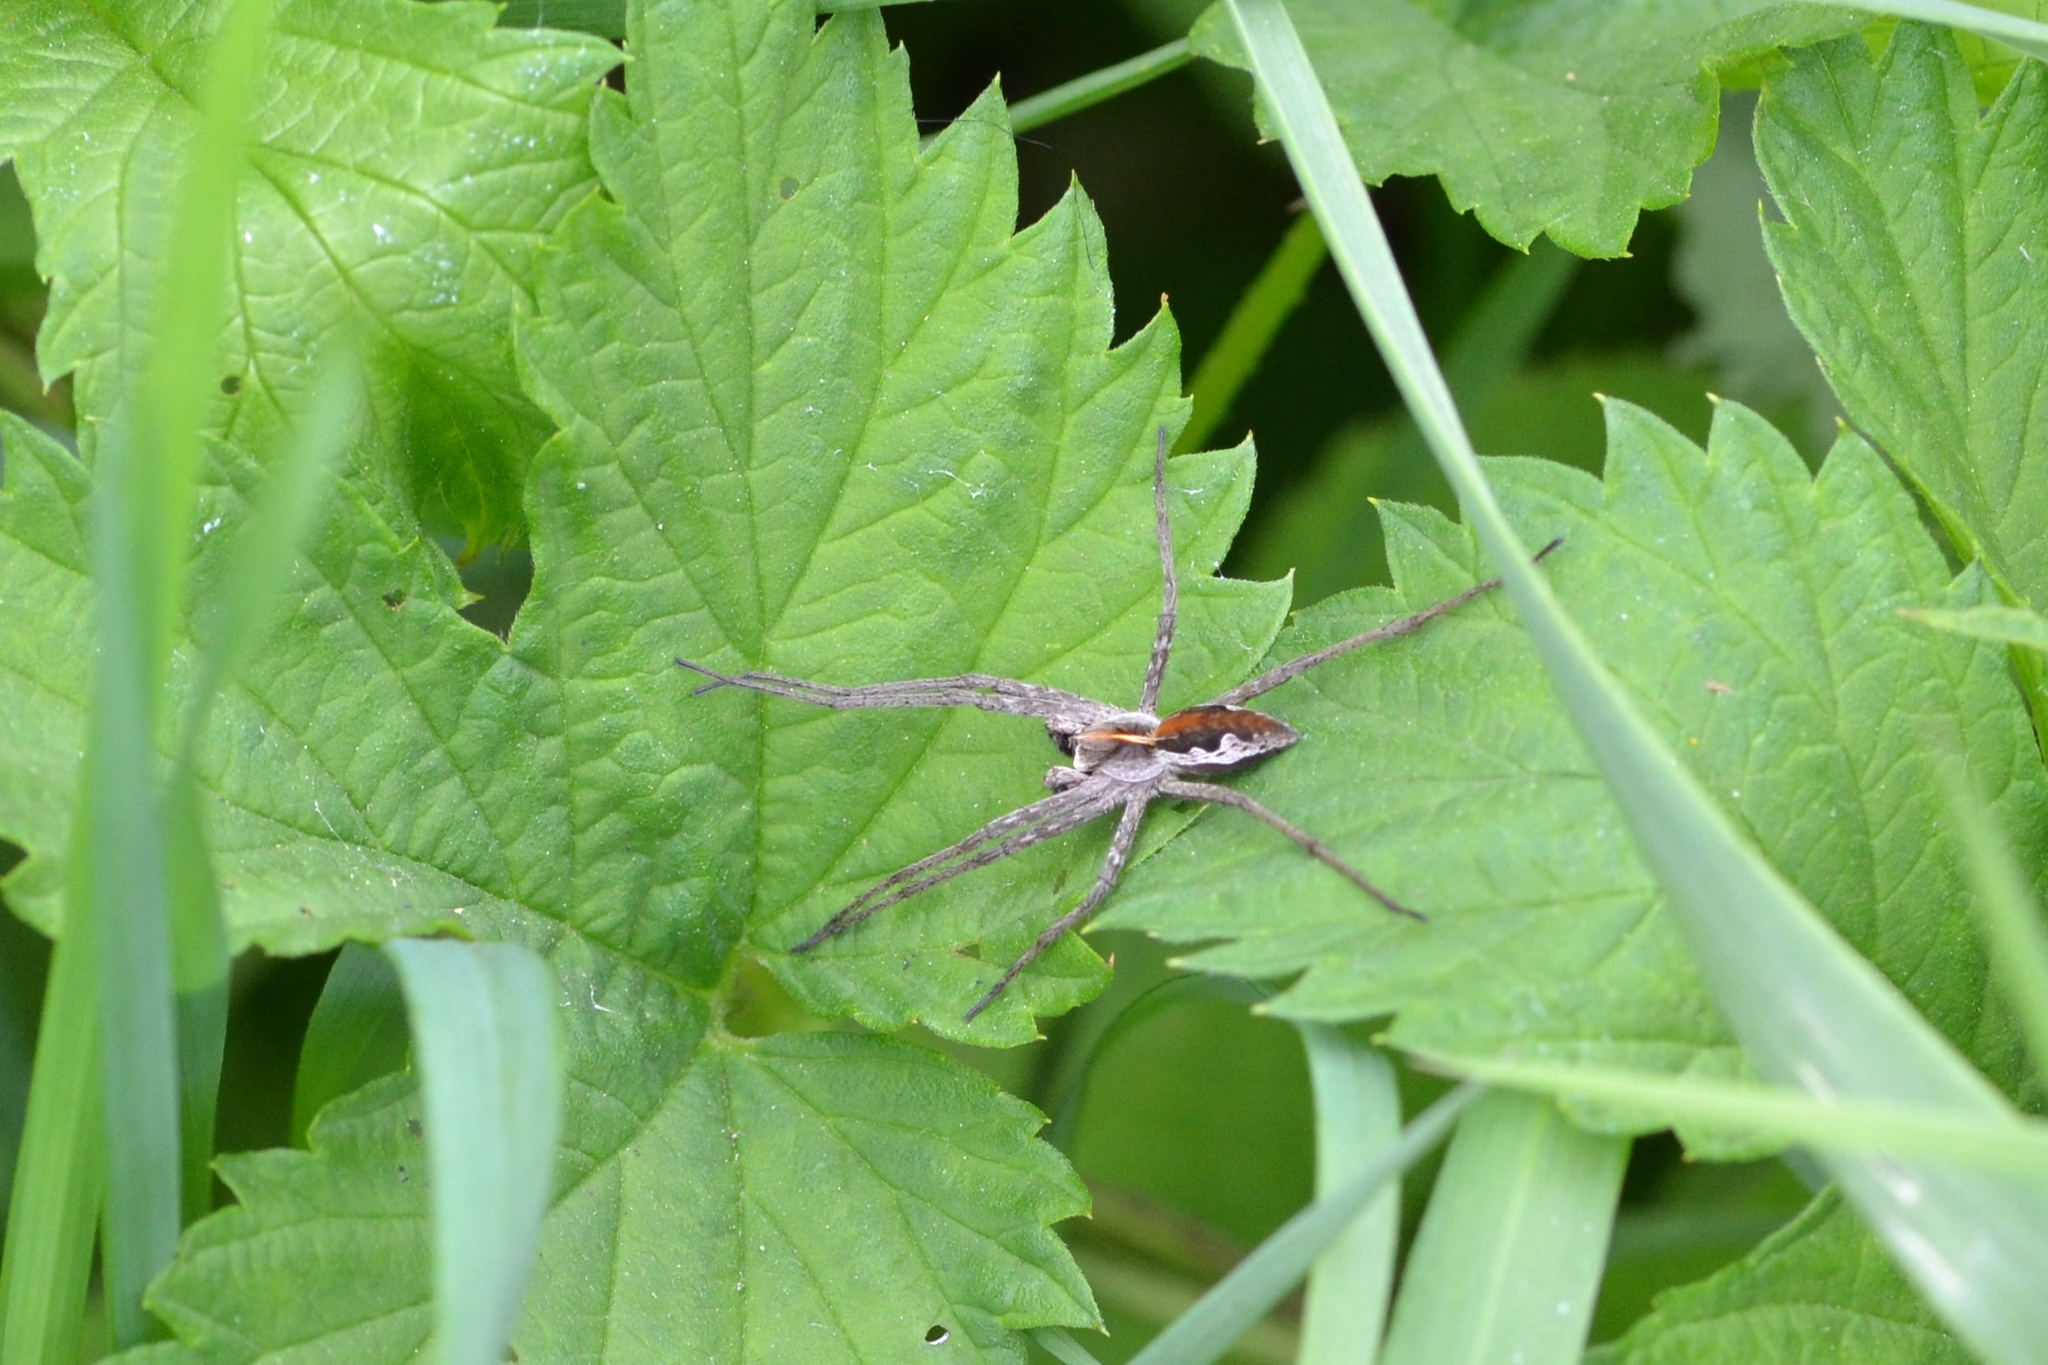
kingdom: Animalia
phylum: Arthropoda
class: Arachnida
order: Araneae
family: Pisauridae
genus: Pisaura
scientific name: Pisaura mirabilis
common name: Tent spider
